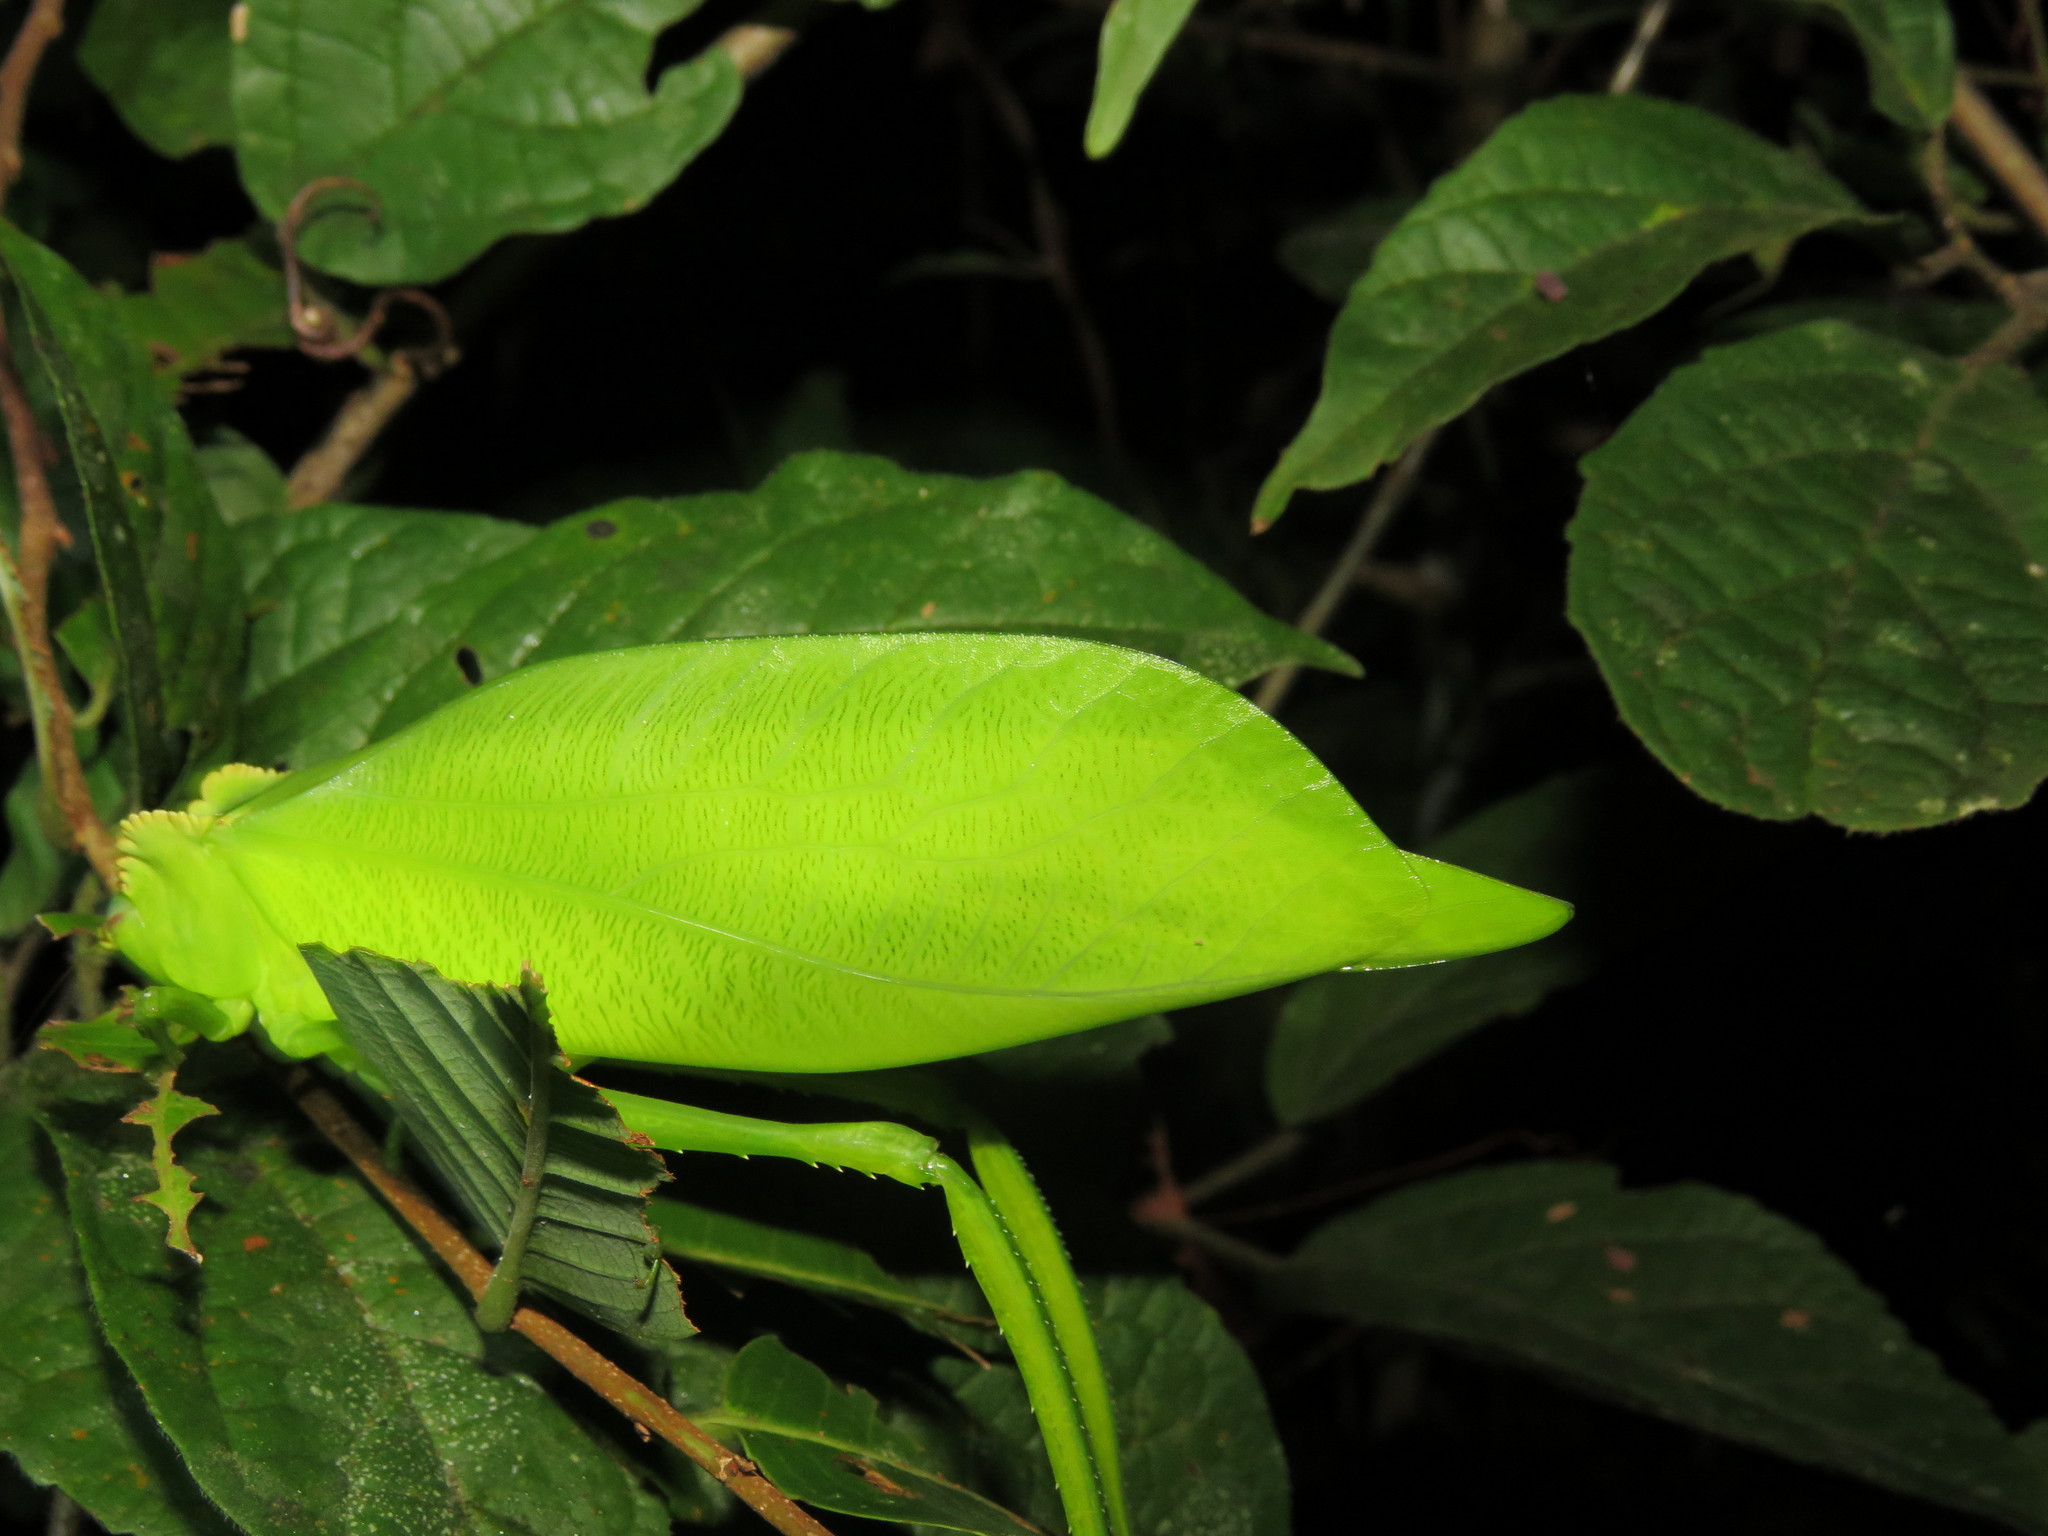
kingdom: Animalia
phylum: Arthropoda
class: Insecta
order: Orthoptera
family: Tettigoniidae
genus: Cnemidophyllum
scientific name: Cnemidophyllum citrifolium
